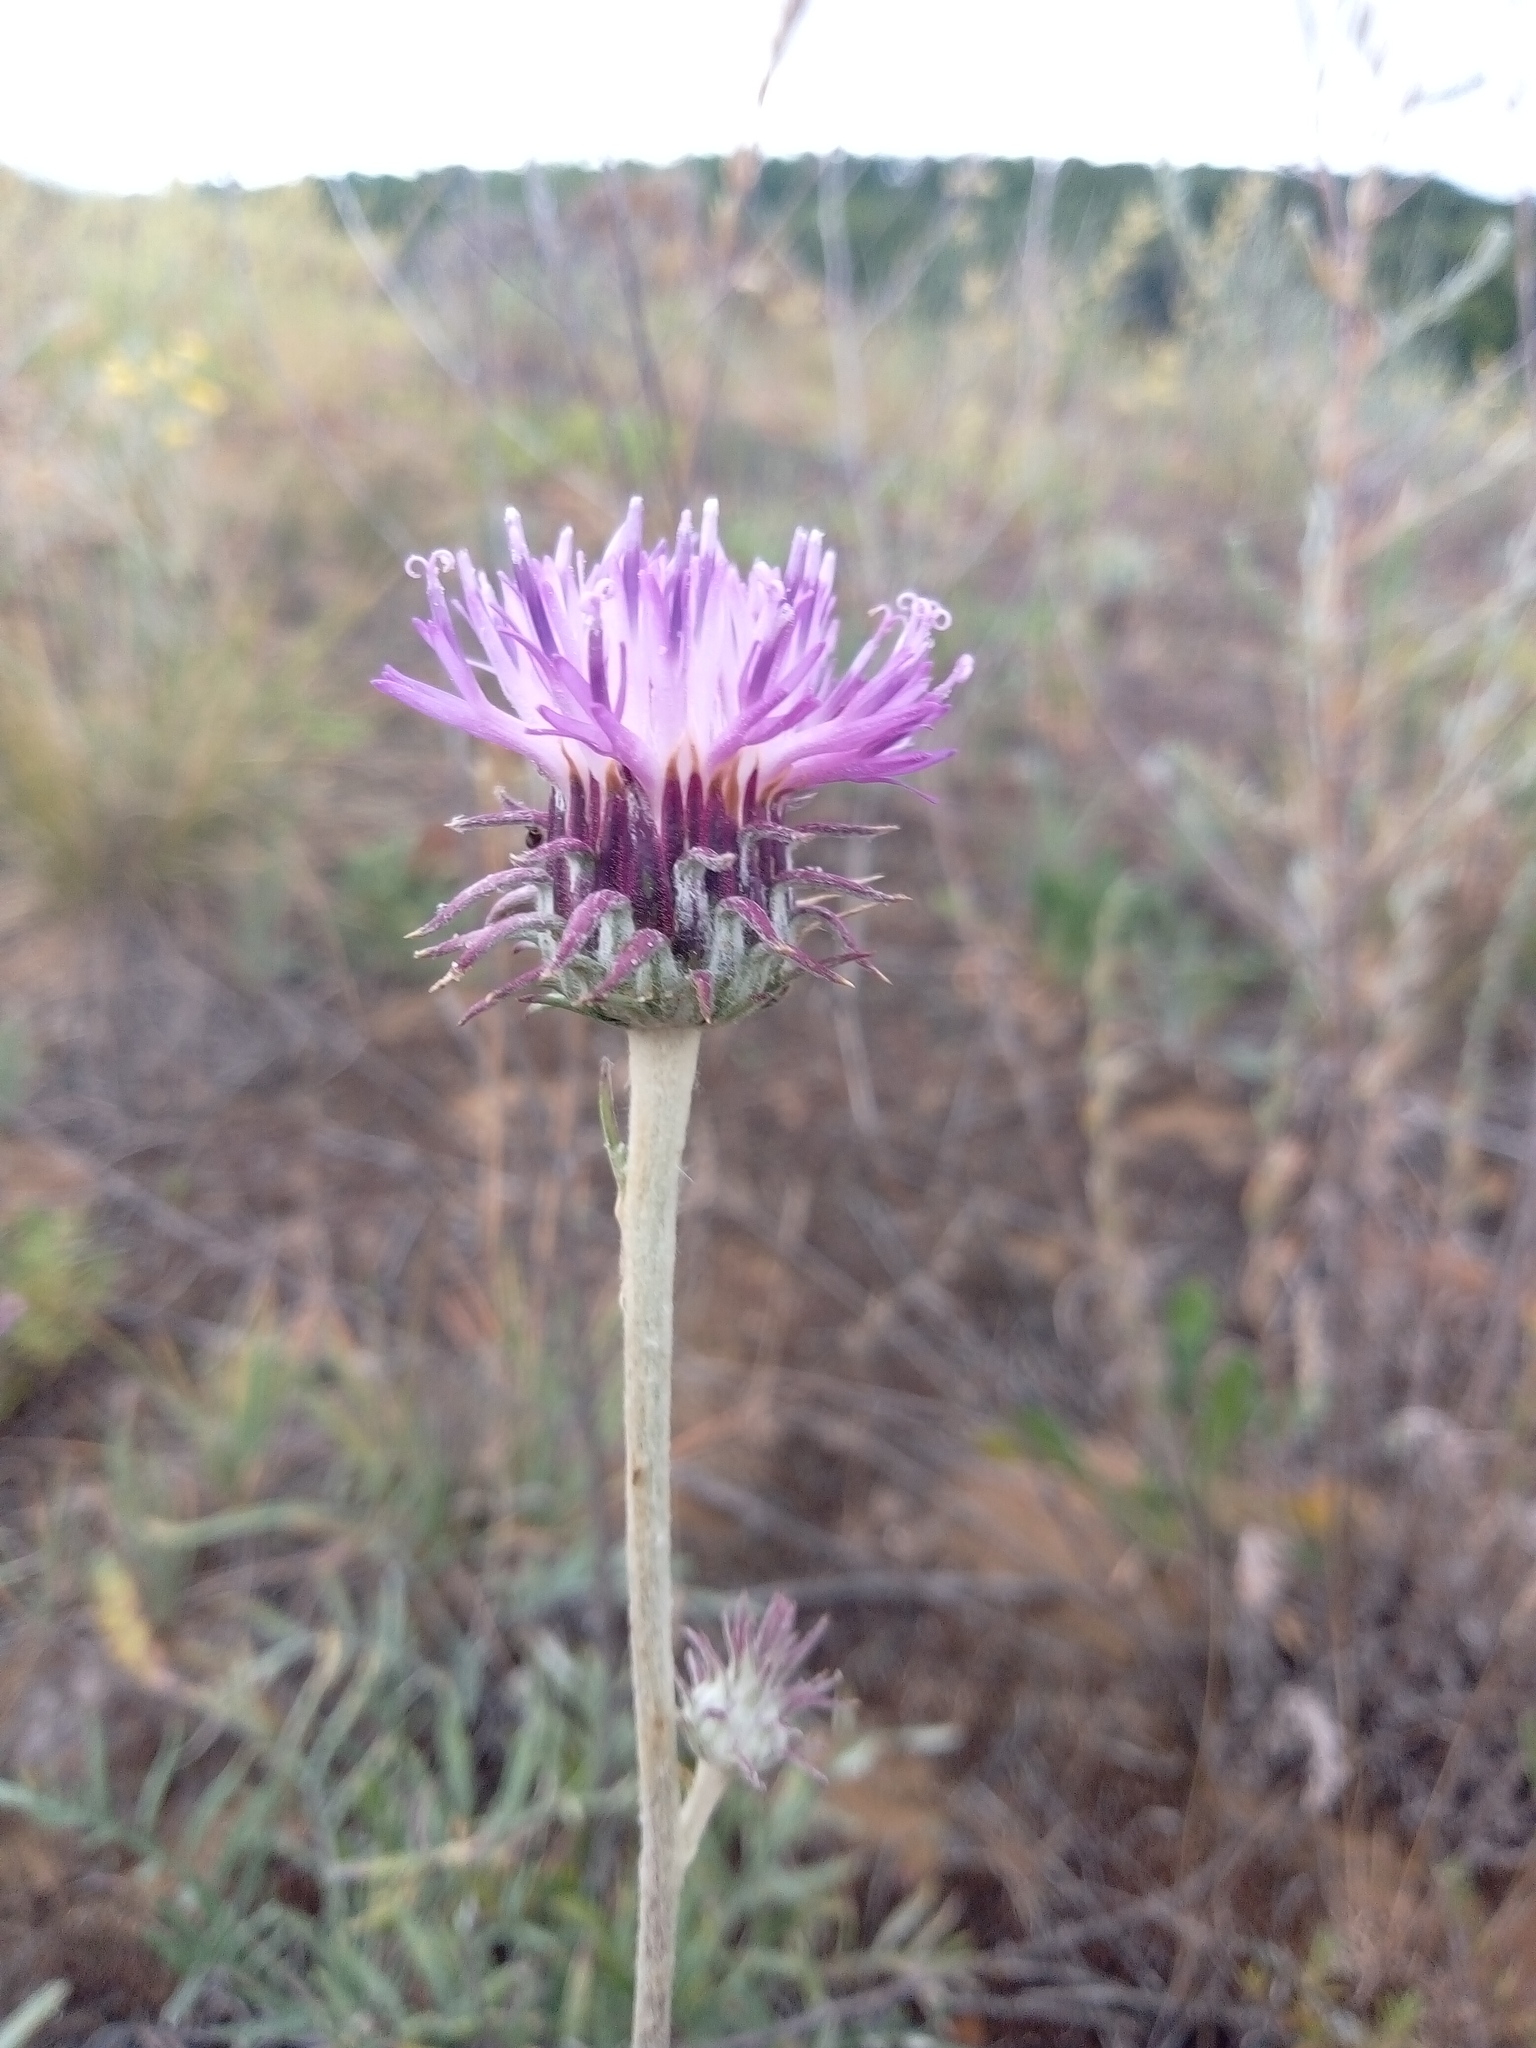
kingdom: Plantae
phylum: Tracheophyta
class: Magnoliopsida
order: Asterales
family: Asteraceae
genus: Jurinea
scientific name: Jurinea cyanoides
